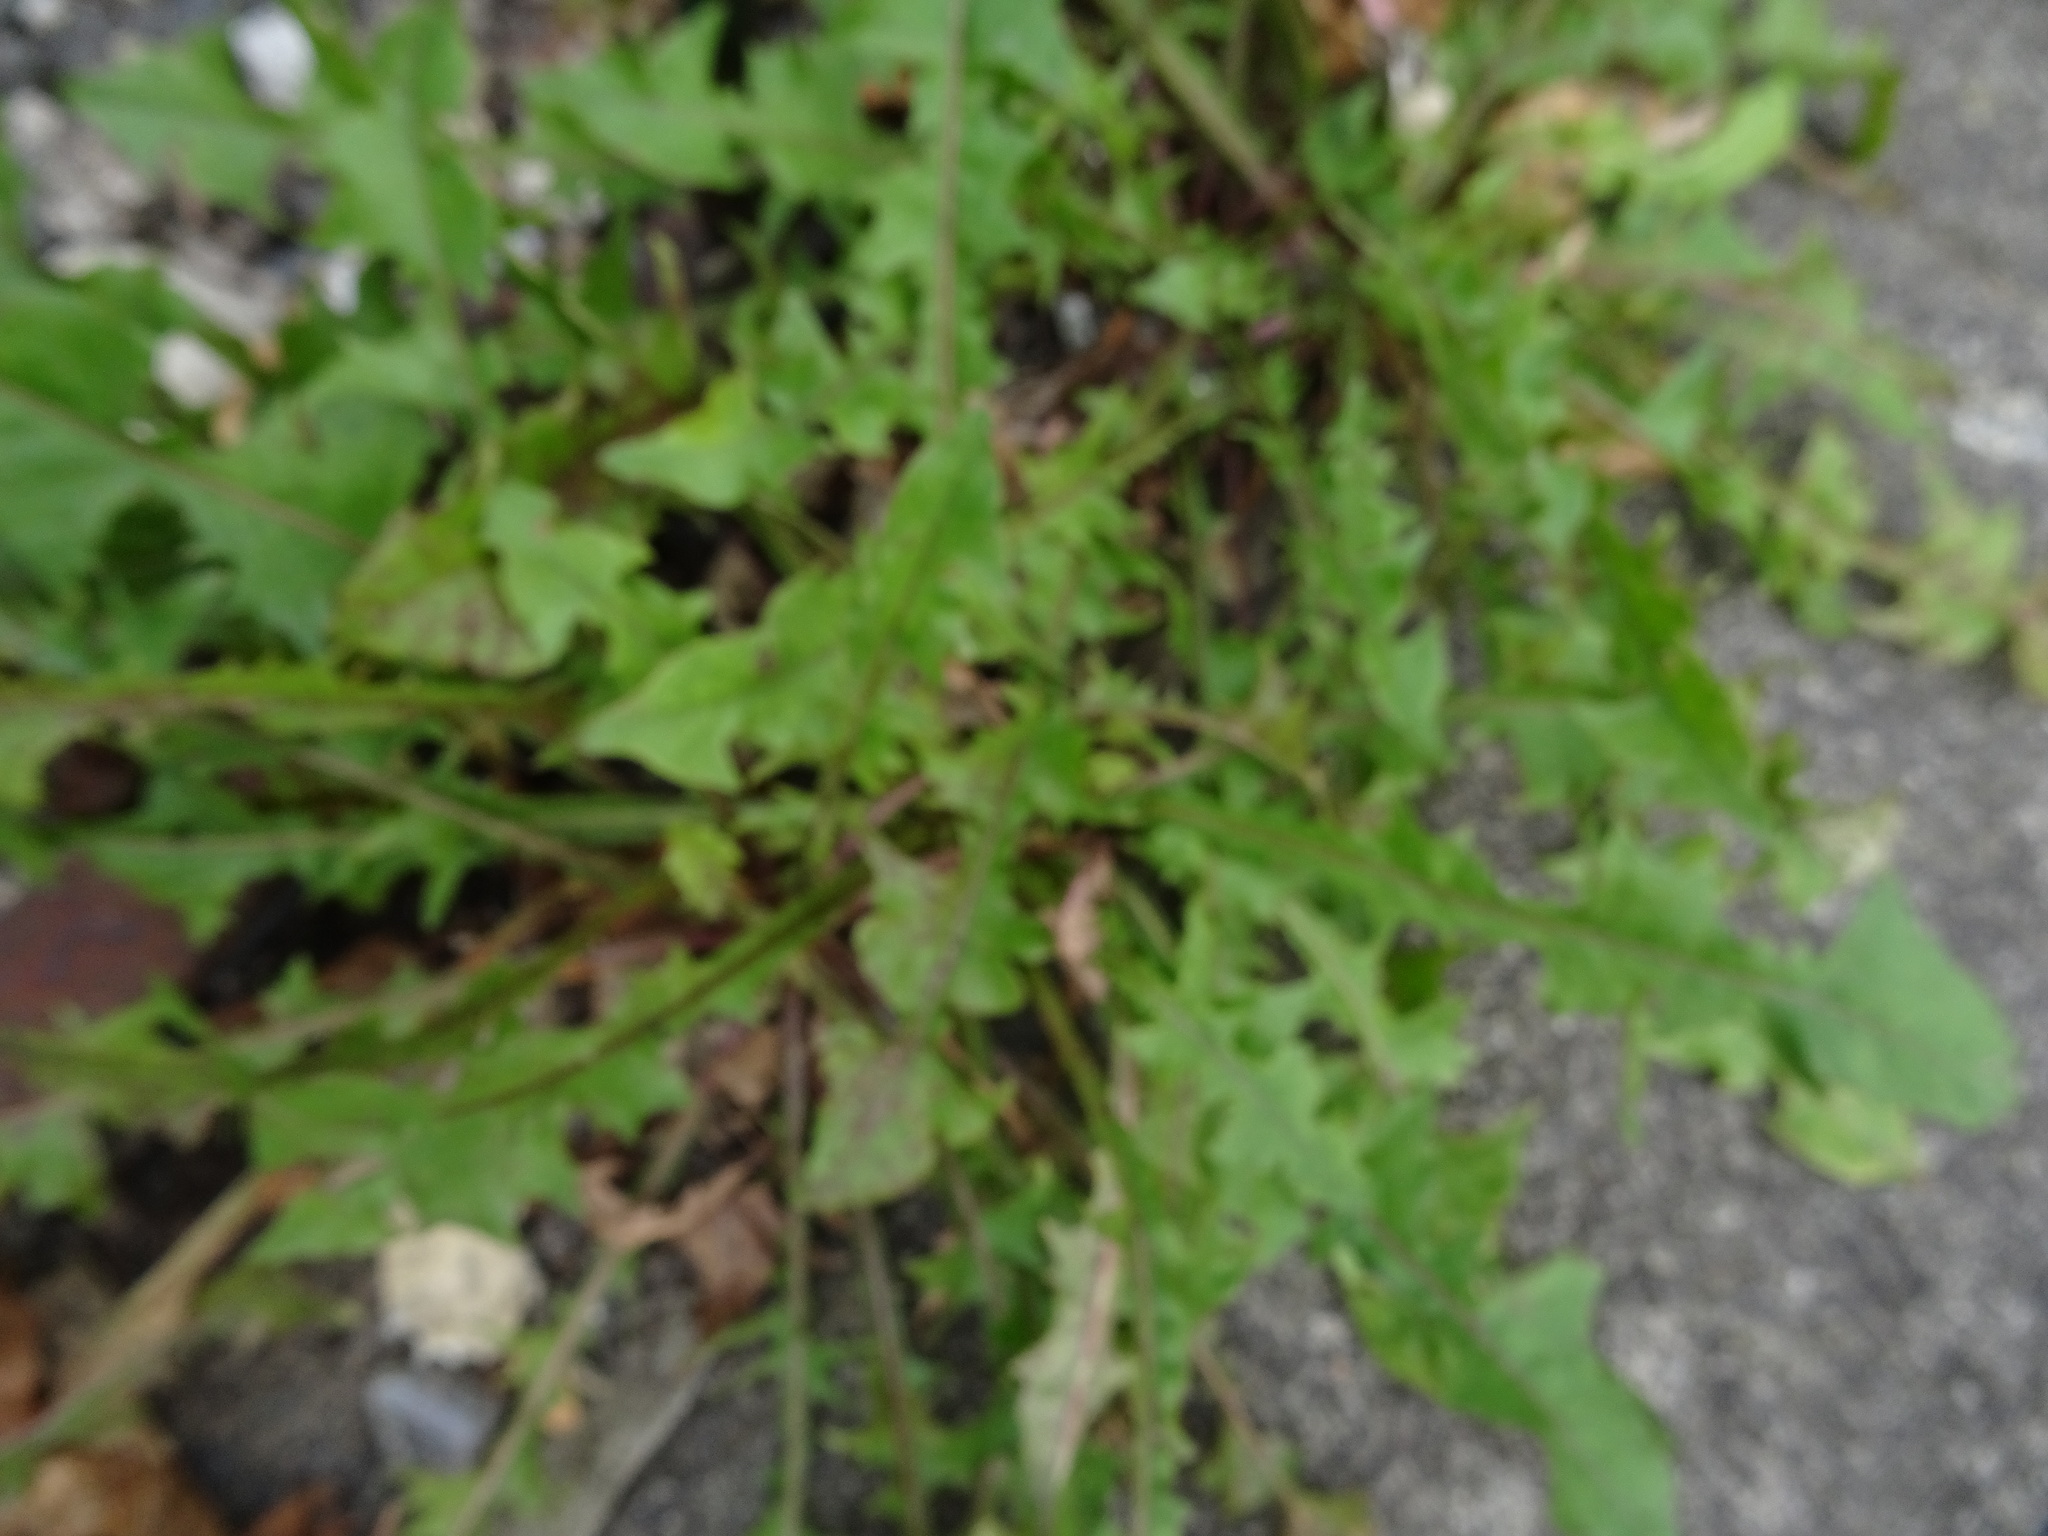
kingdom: Plantae
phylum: Tracheophyta
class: Magnoliopsida
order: Asterales
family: Asteraceae
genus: Taraxacum
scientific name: Taraxacum officinale
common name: Common dandelion
